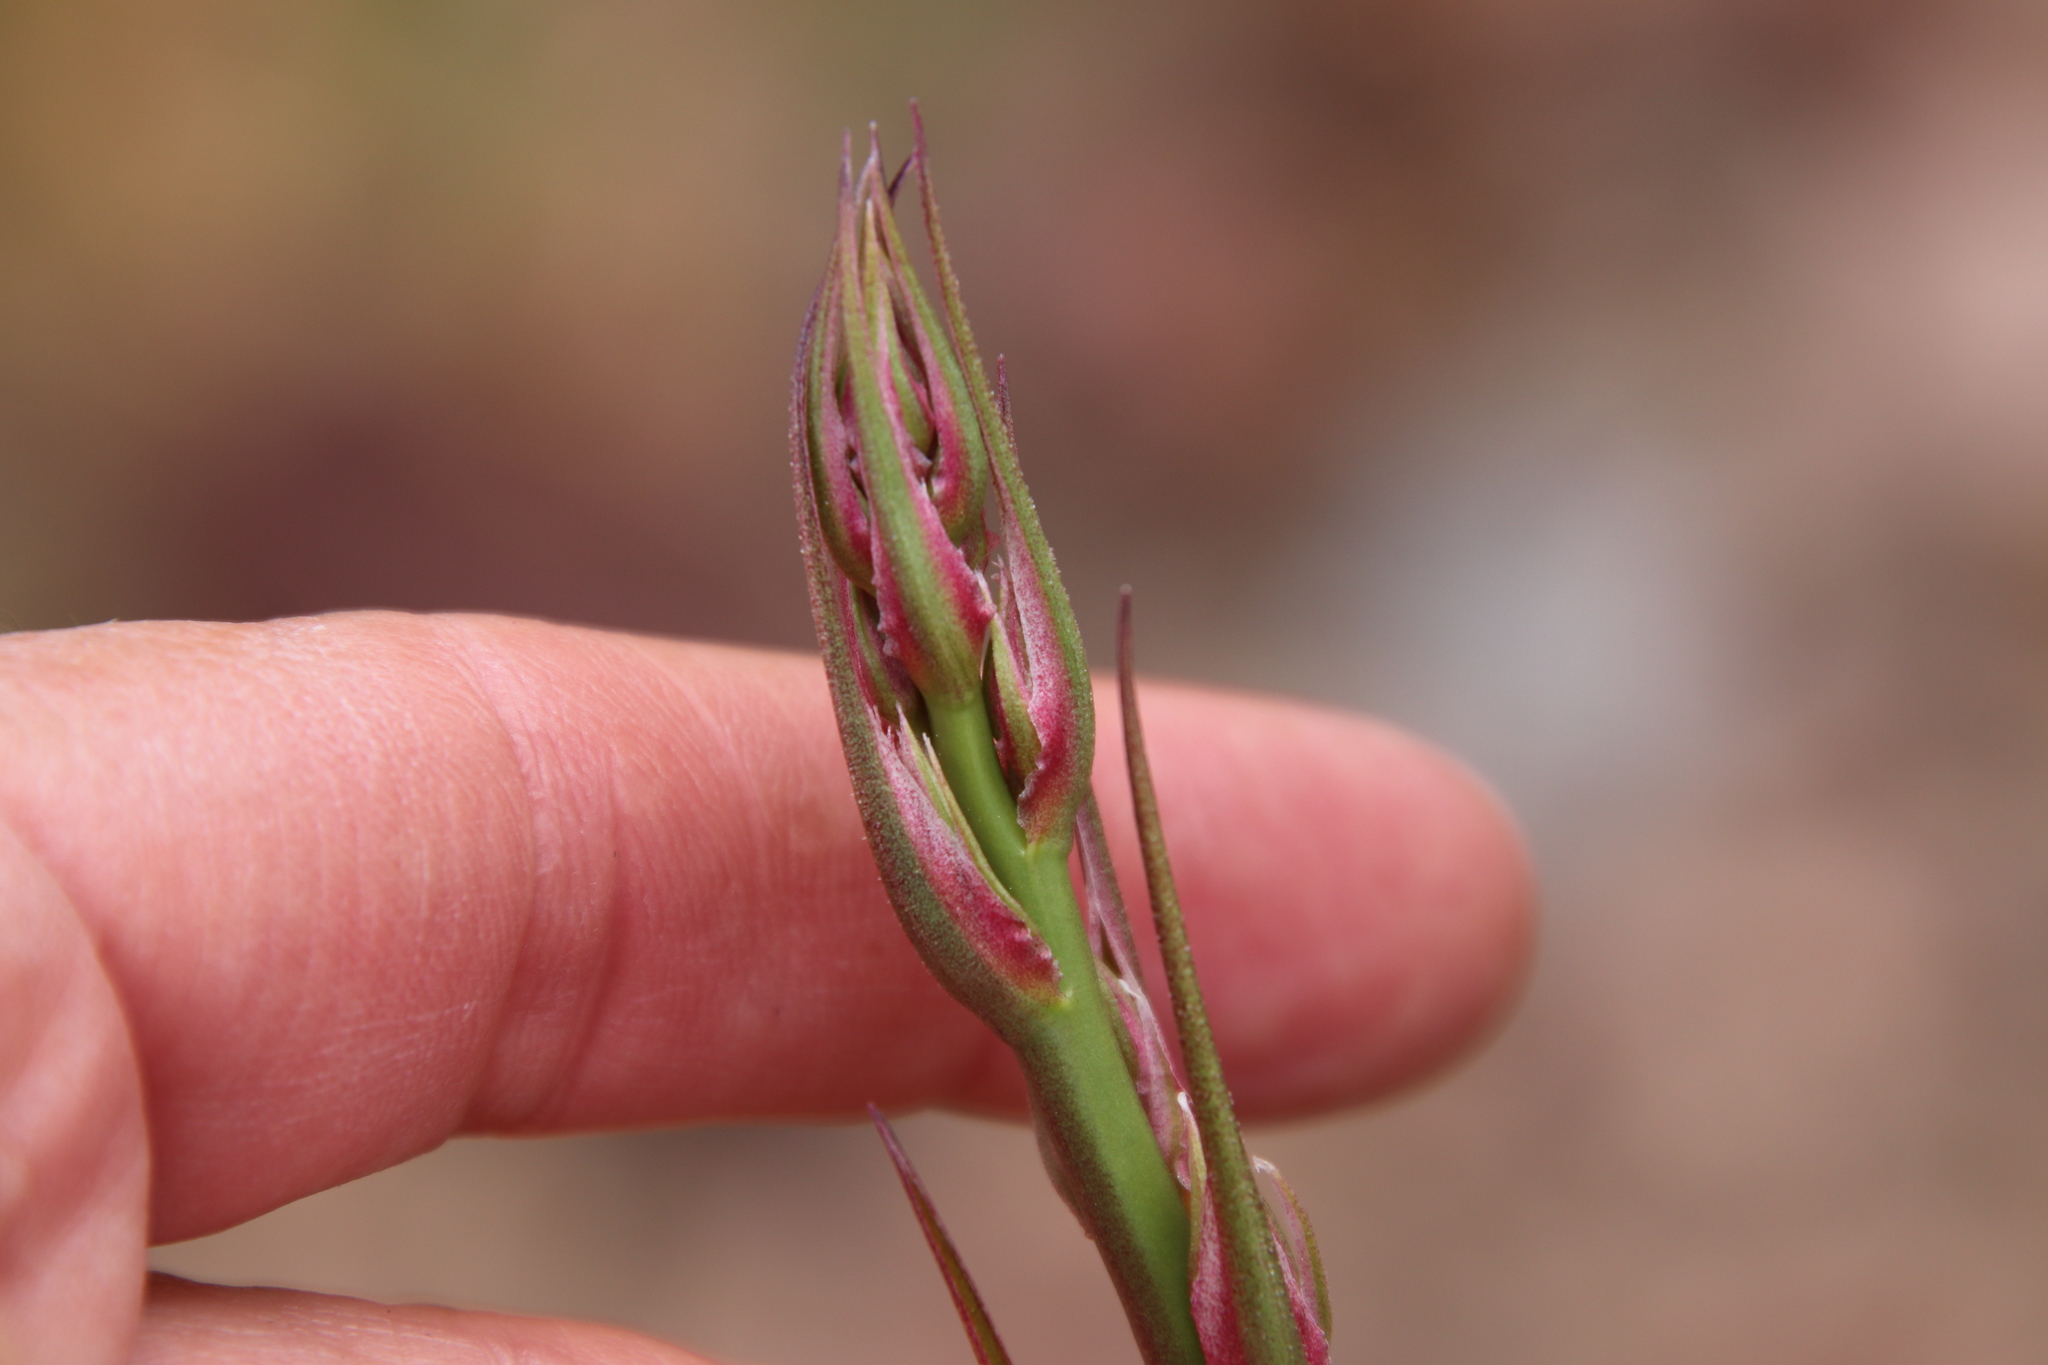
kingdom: Plantae
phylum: Tracheophyta
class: Liliopsida
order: Asparagales
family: Asparagaceae
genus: Hooveria
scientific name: Hooveria parviflora
